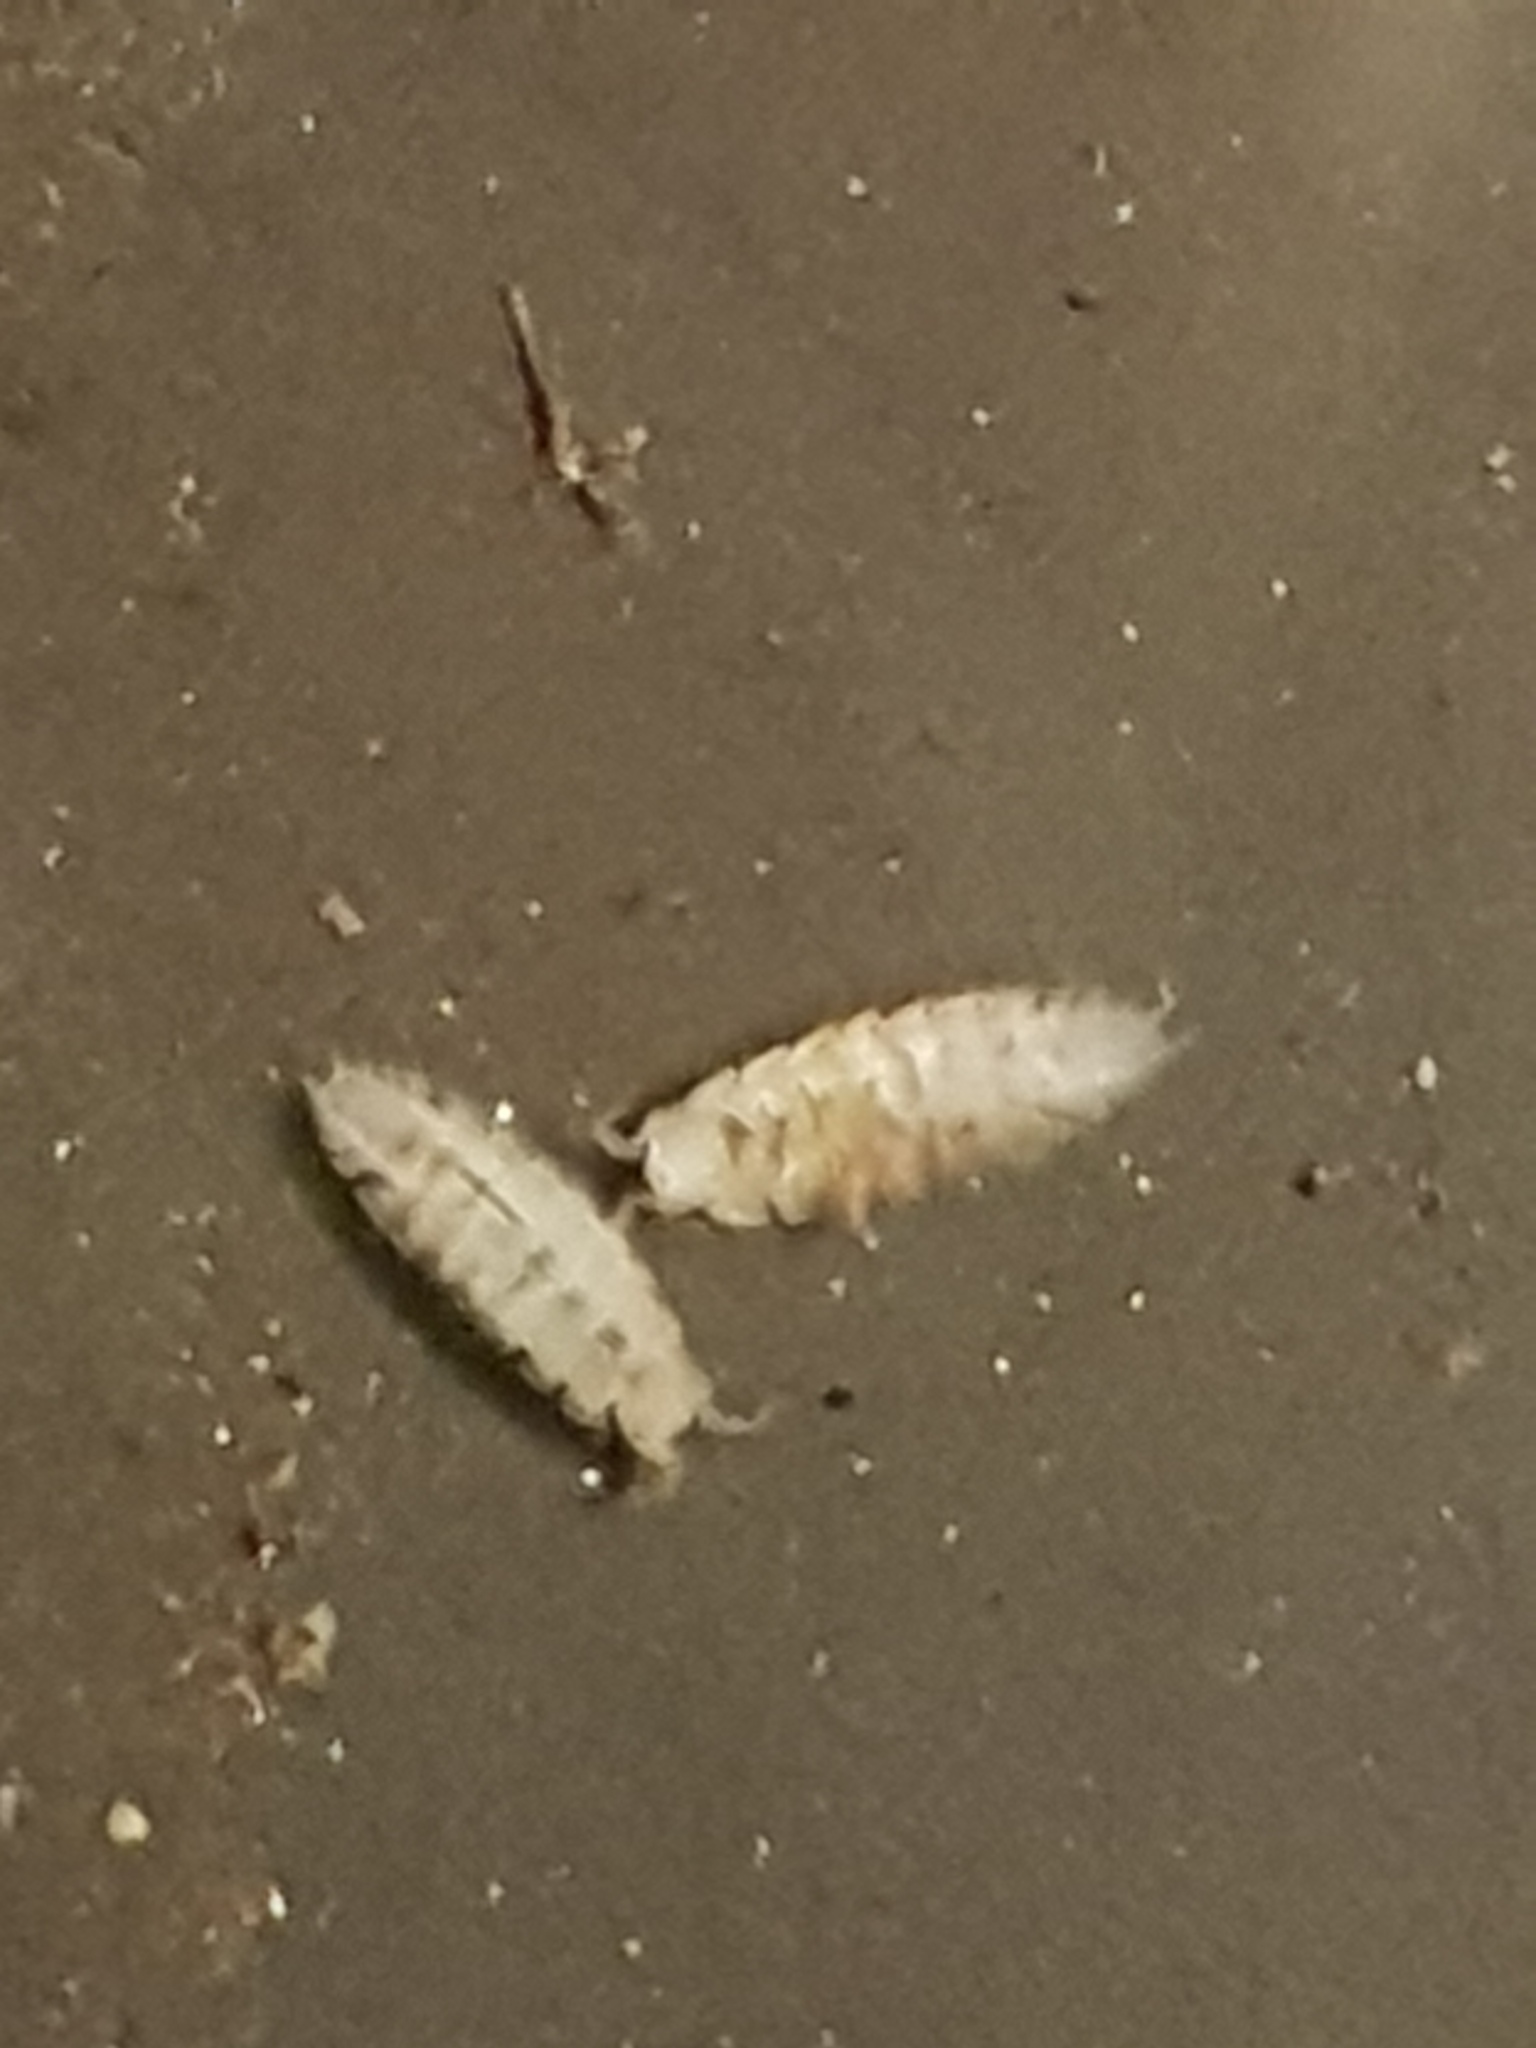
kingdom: Animalia
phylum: Arthropoda
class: Malacostraca
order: Isopoda
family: Trichoniscidae
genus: Haplophthalmus
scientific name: Haplophthalmus danicus
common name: Pillbug
